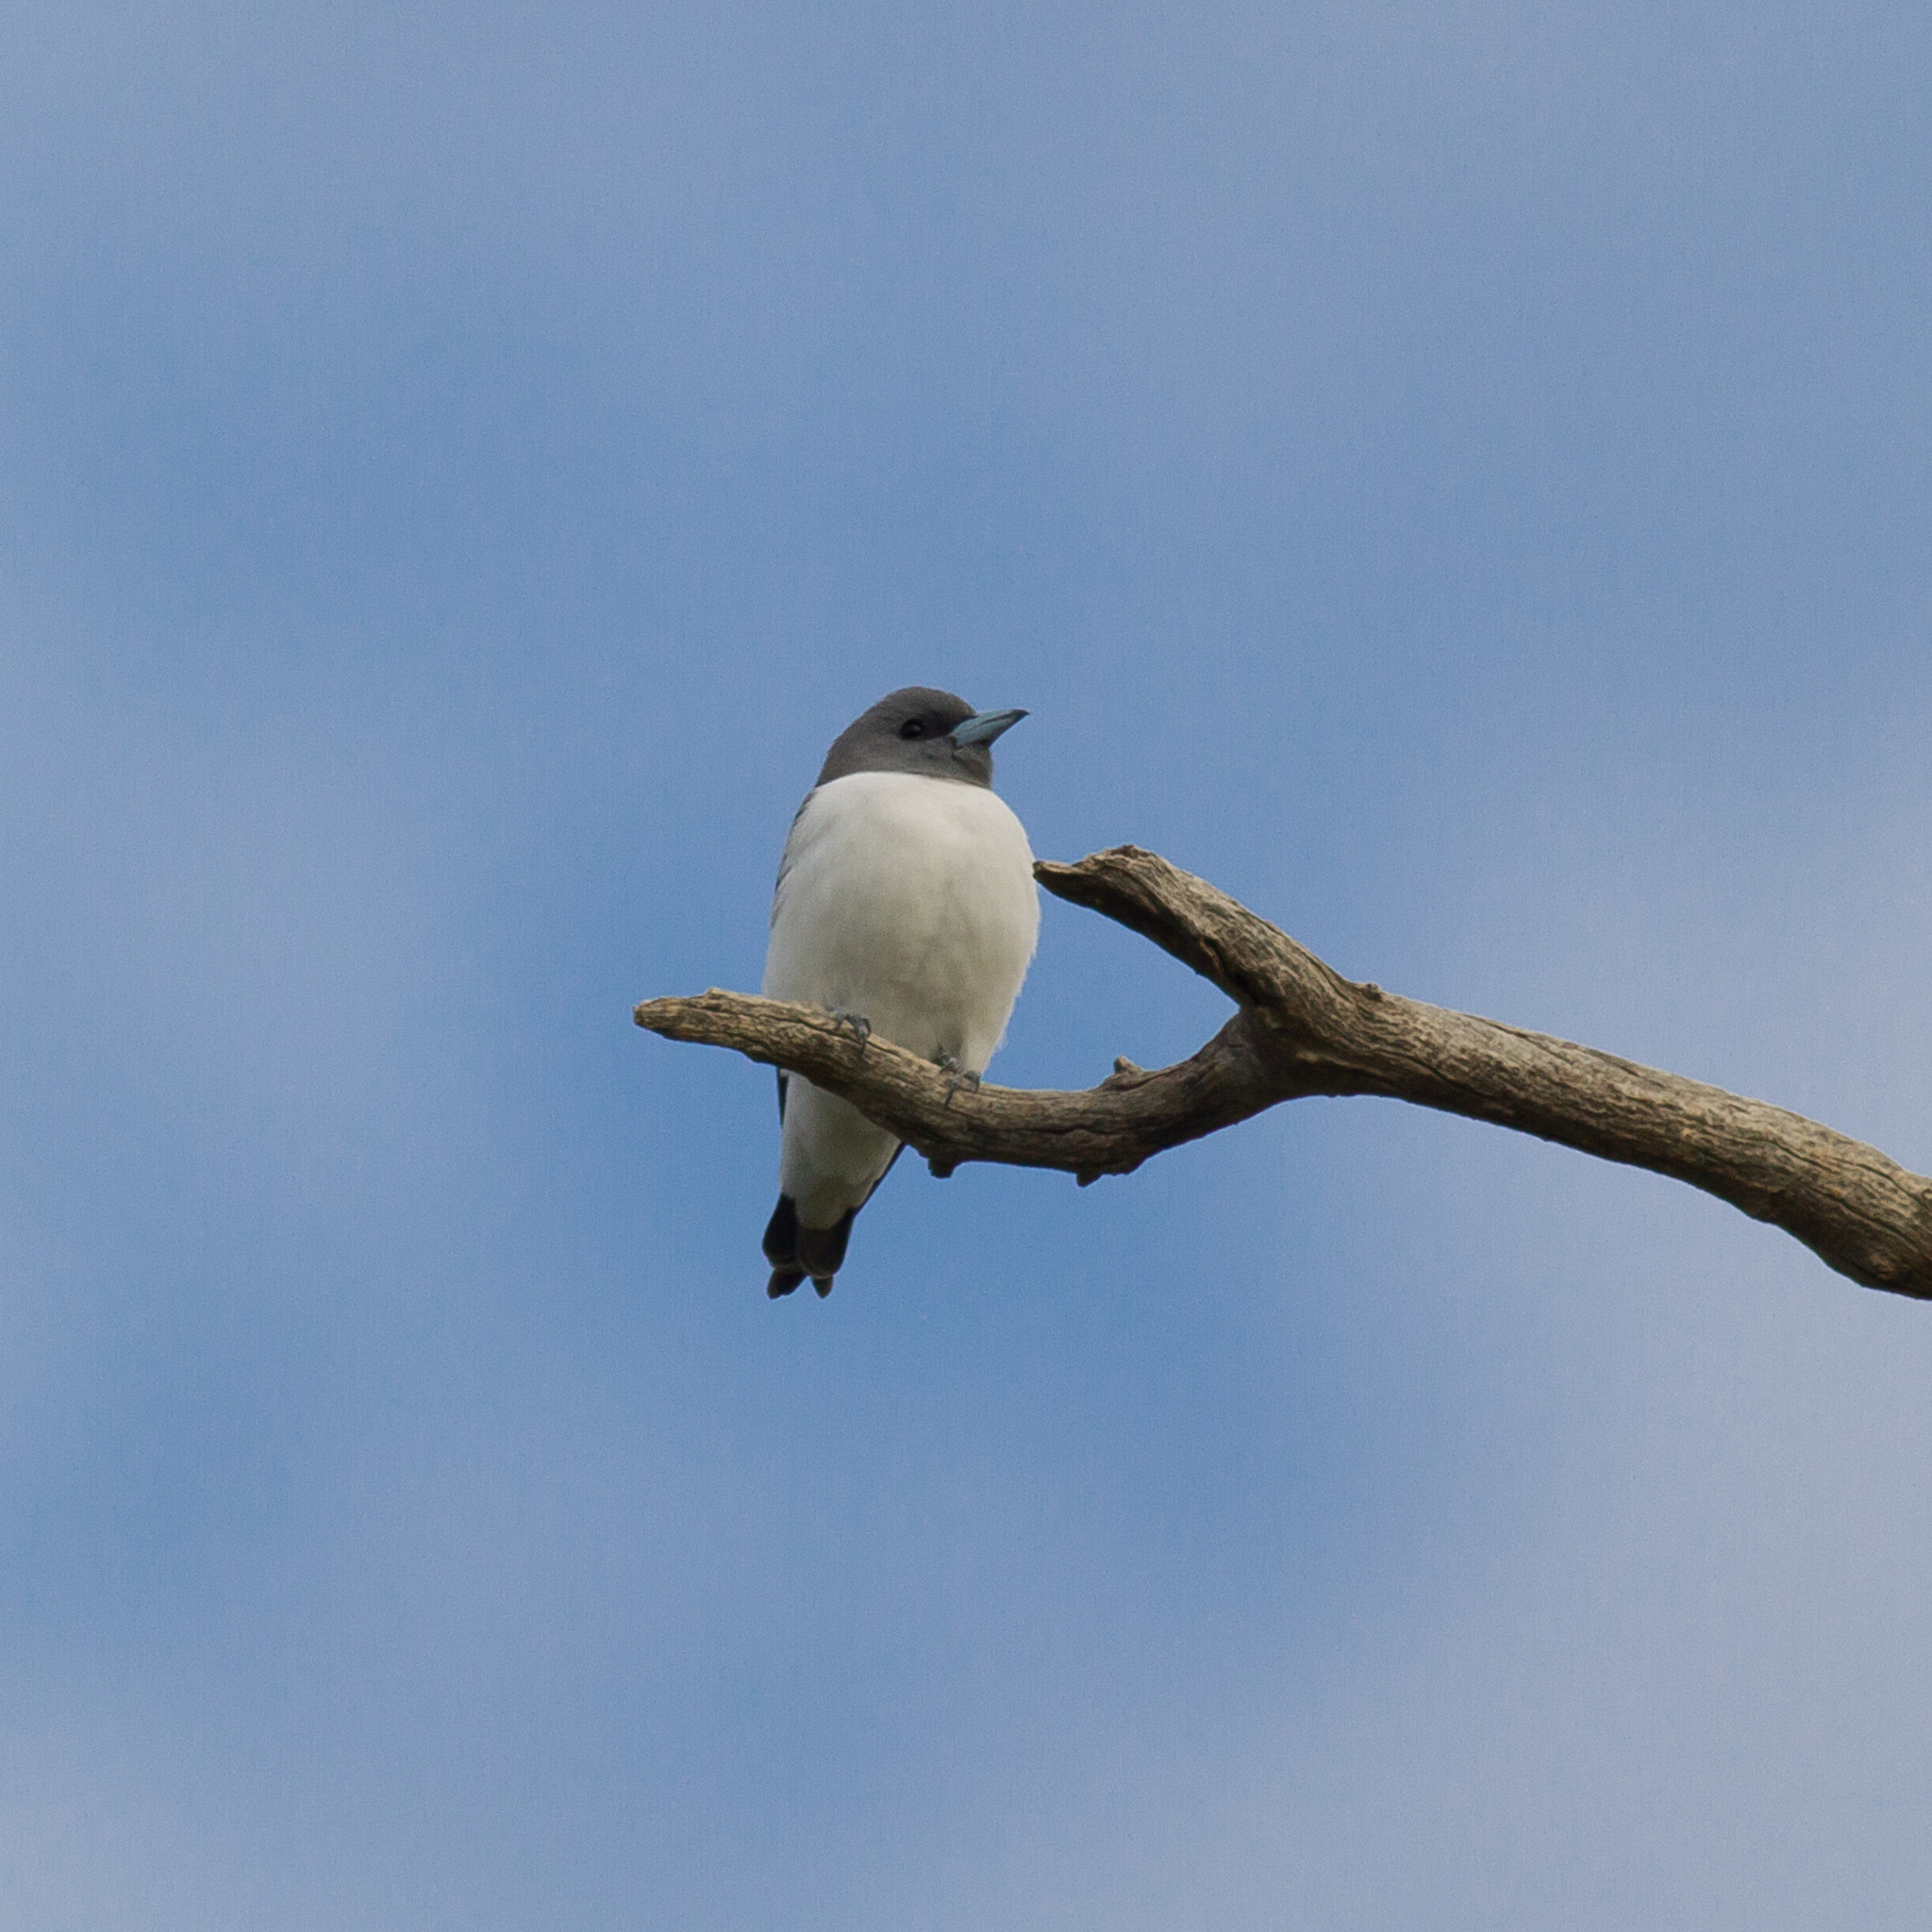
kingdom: Animalia
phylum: Chordata
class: Aves
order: Passeriformes
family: Artamidae
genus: Artamus
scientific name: Artamus leucoryn
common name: White-breasted woodswallow
